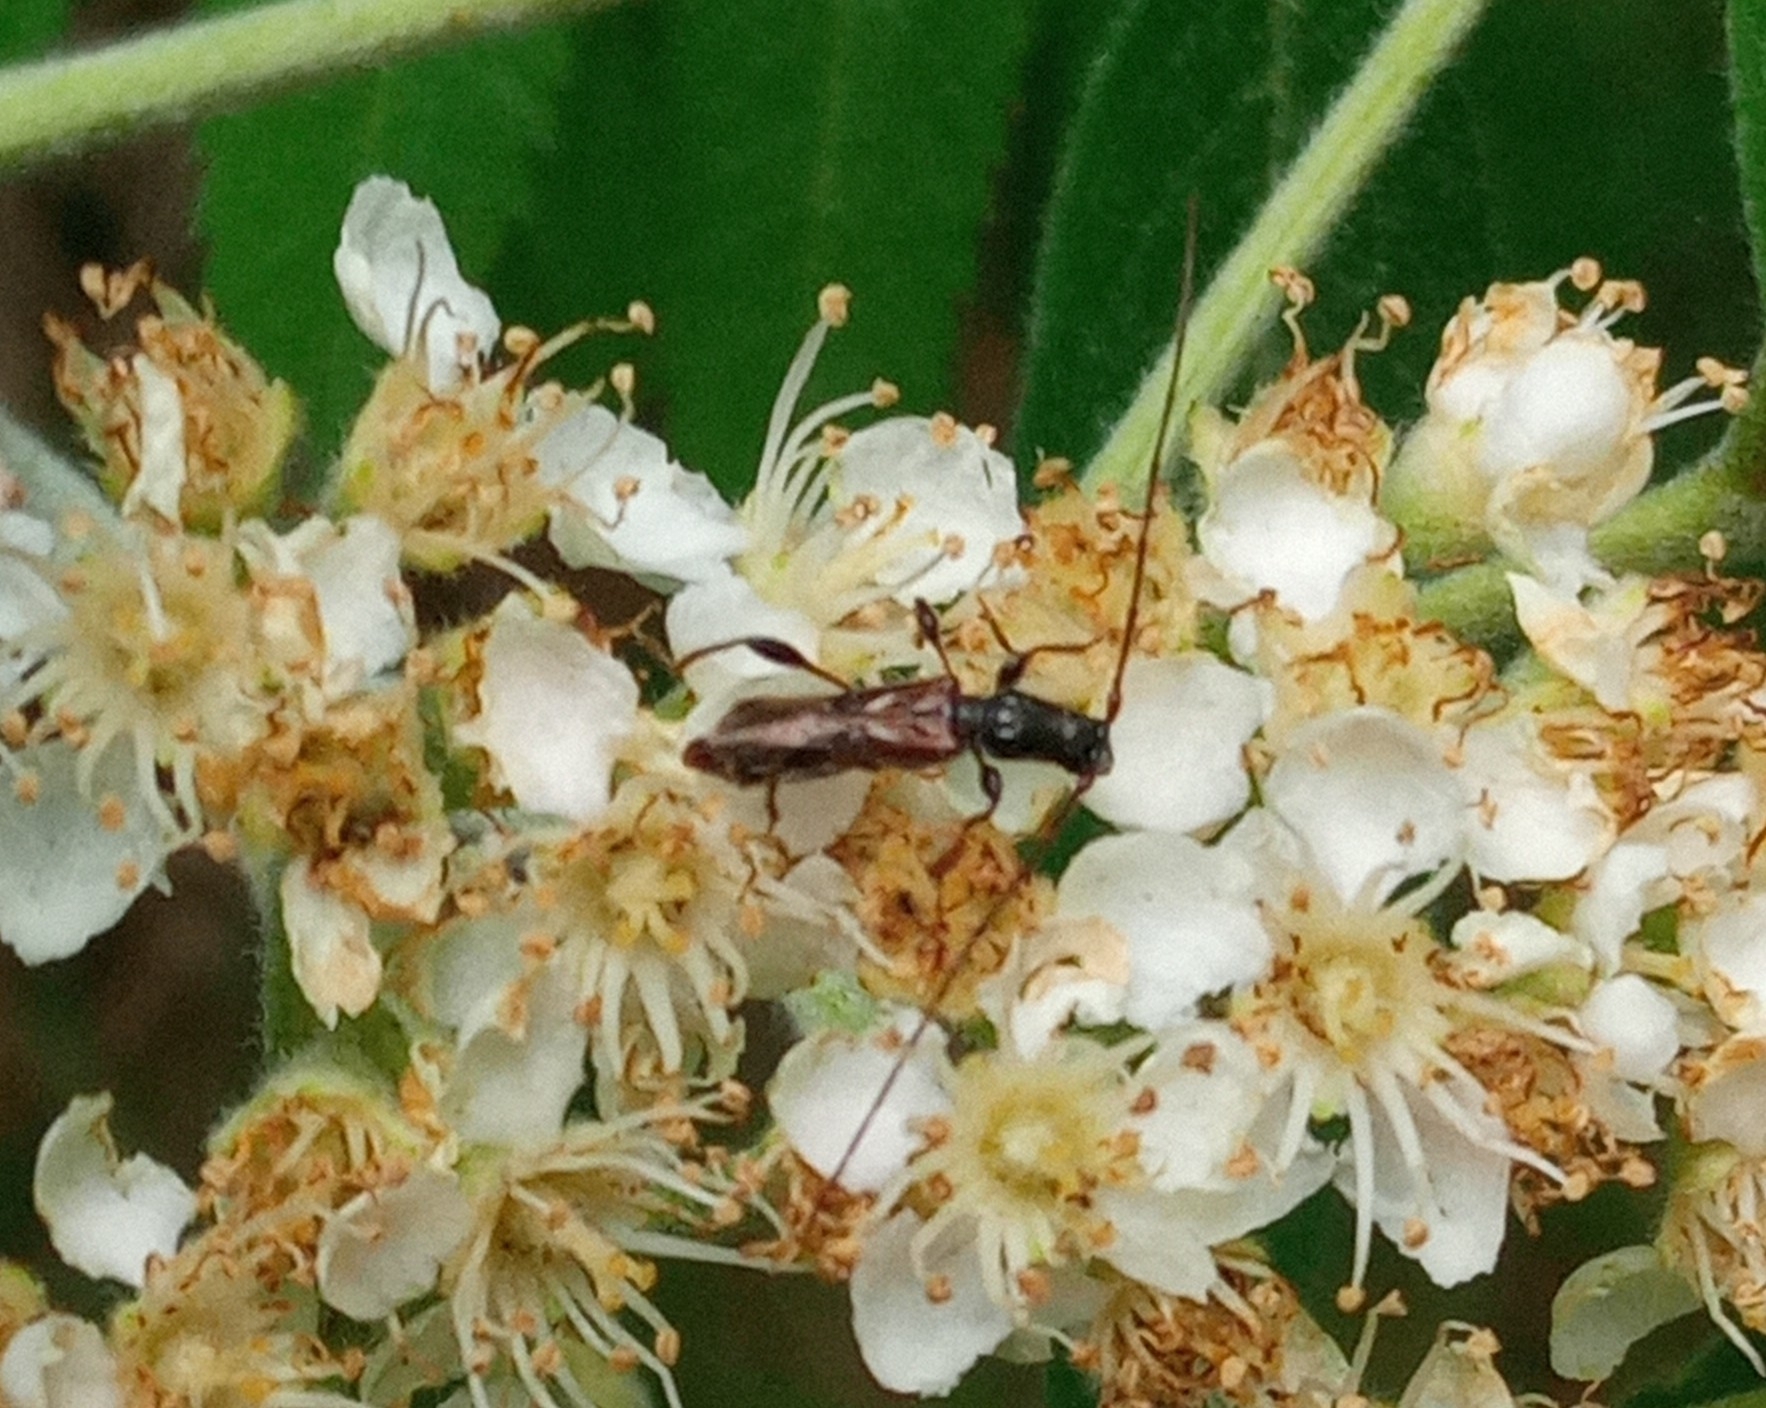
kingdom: Animalia
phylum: Arthropoda
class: Insecta
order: Coleoptera
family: Cerambycidae
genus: Molorchus
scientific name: Molorchus minor
